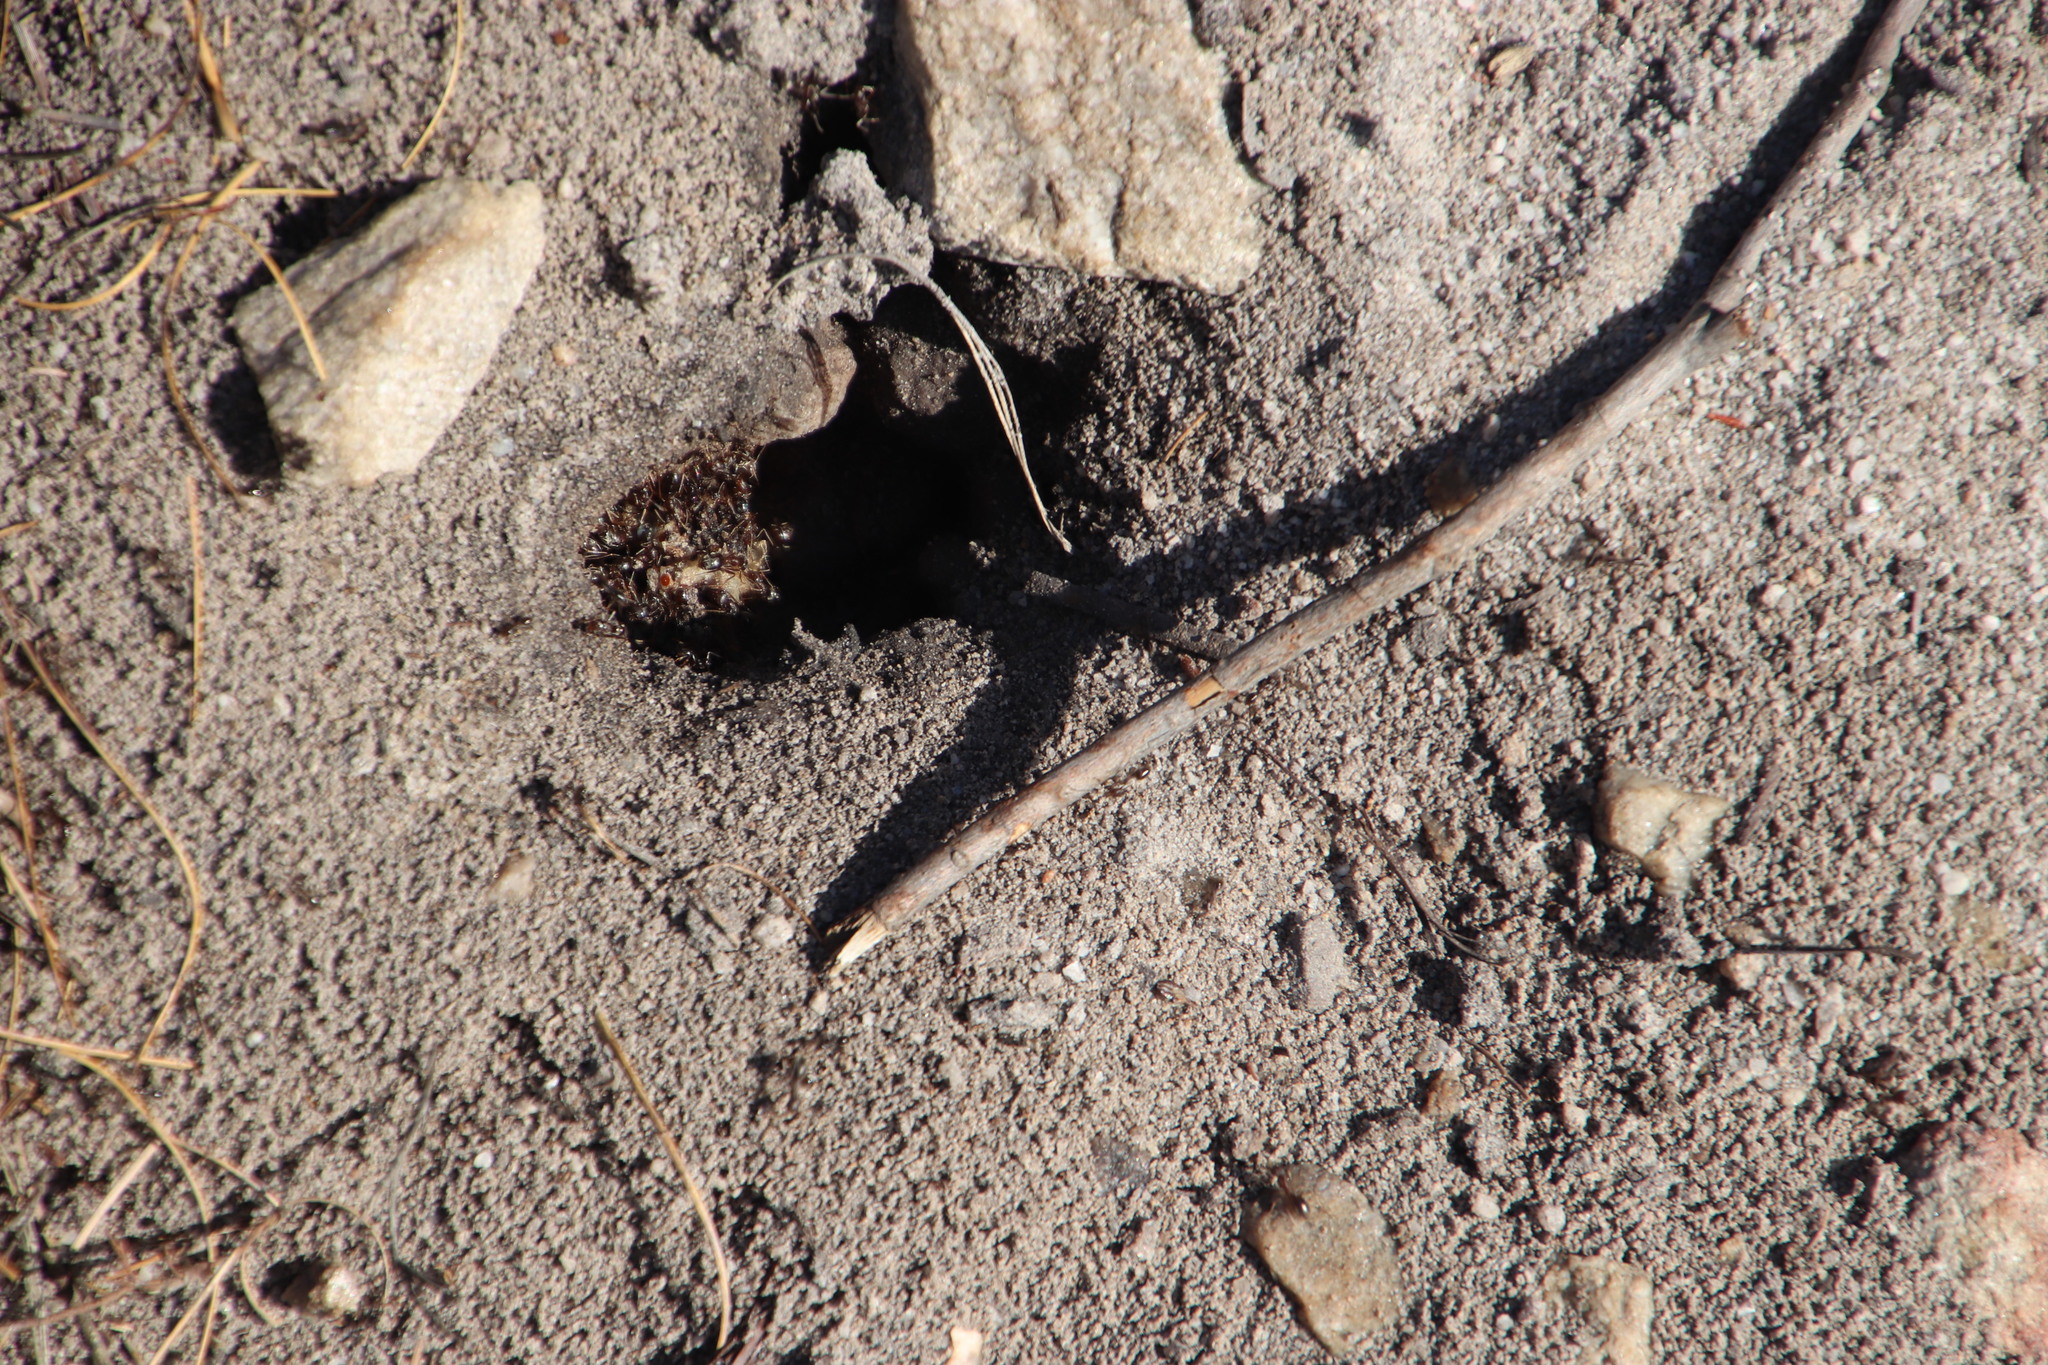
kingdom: Animalia
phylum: Arthropoda
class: Insecta
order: Hymenoptera
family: Formicidae
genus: Anoplolepis
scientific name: Anoplolepis steingroeveri
